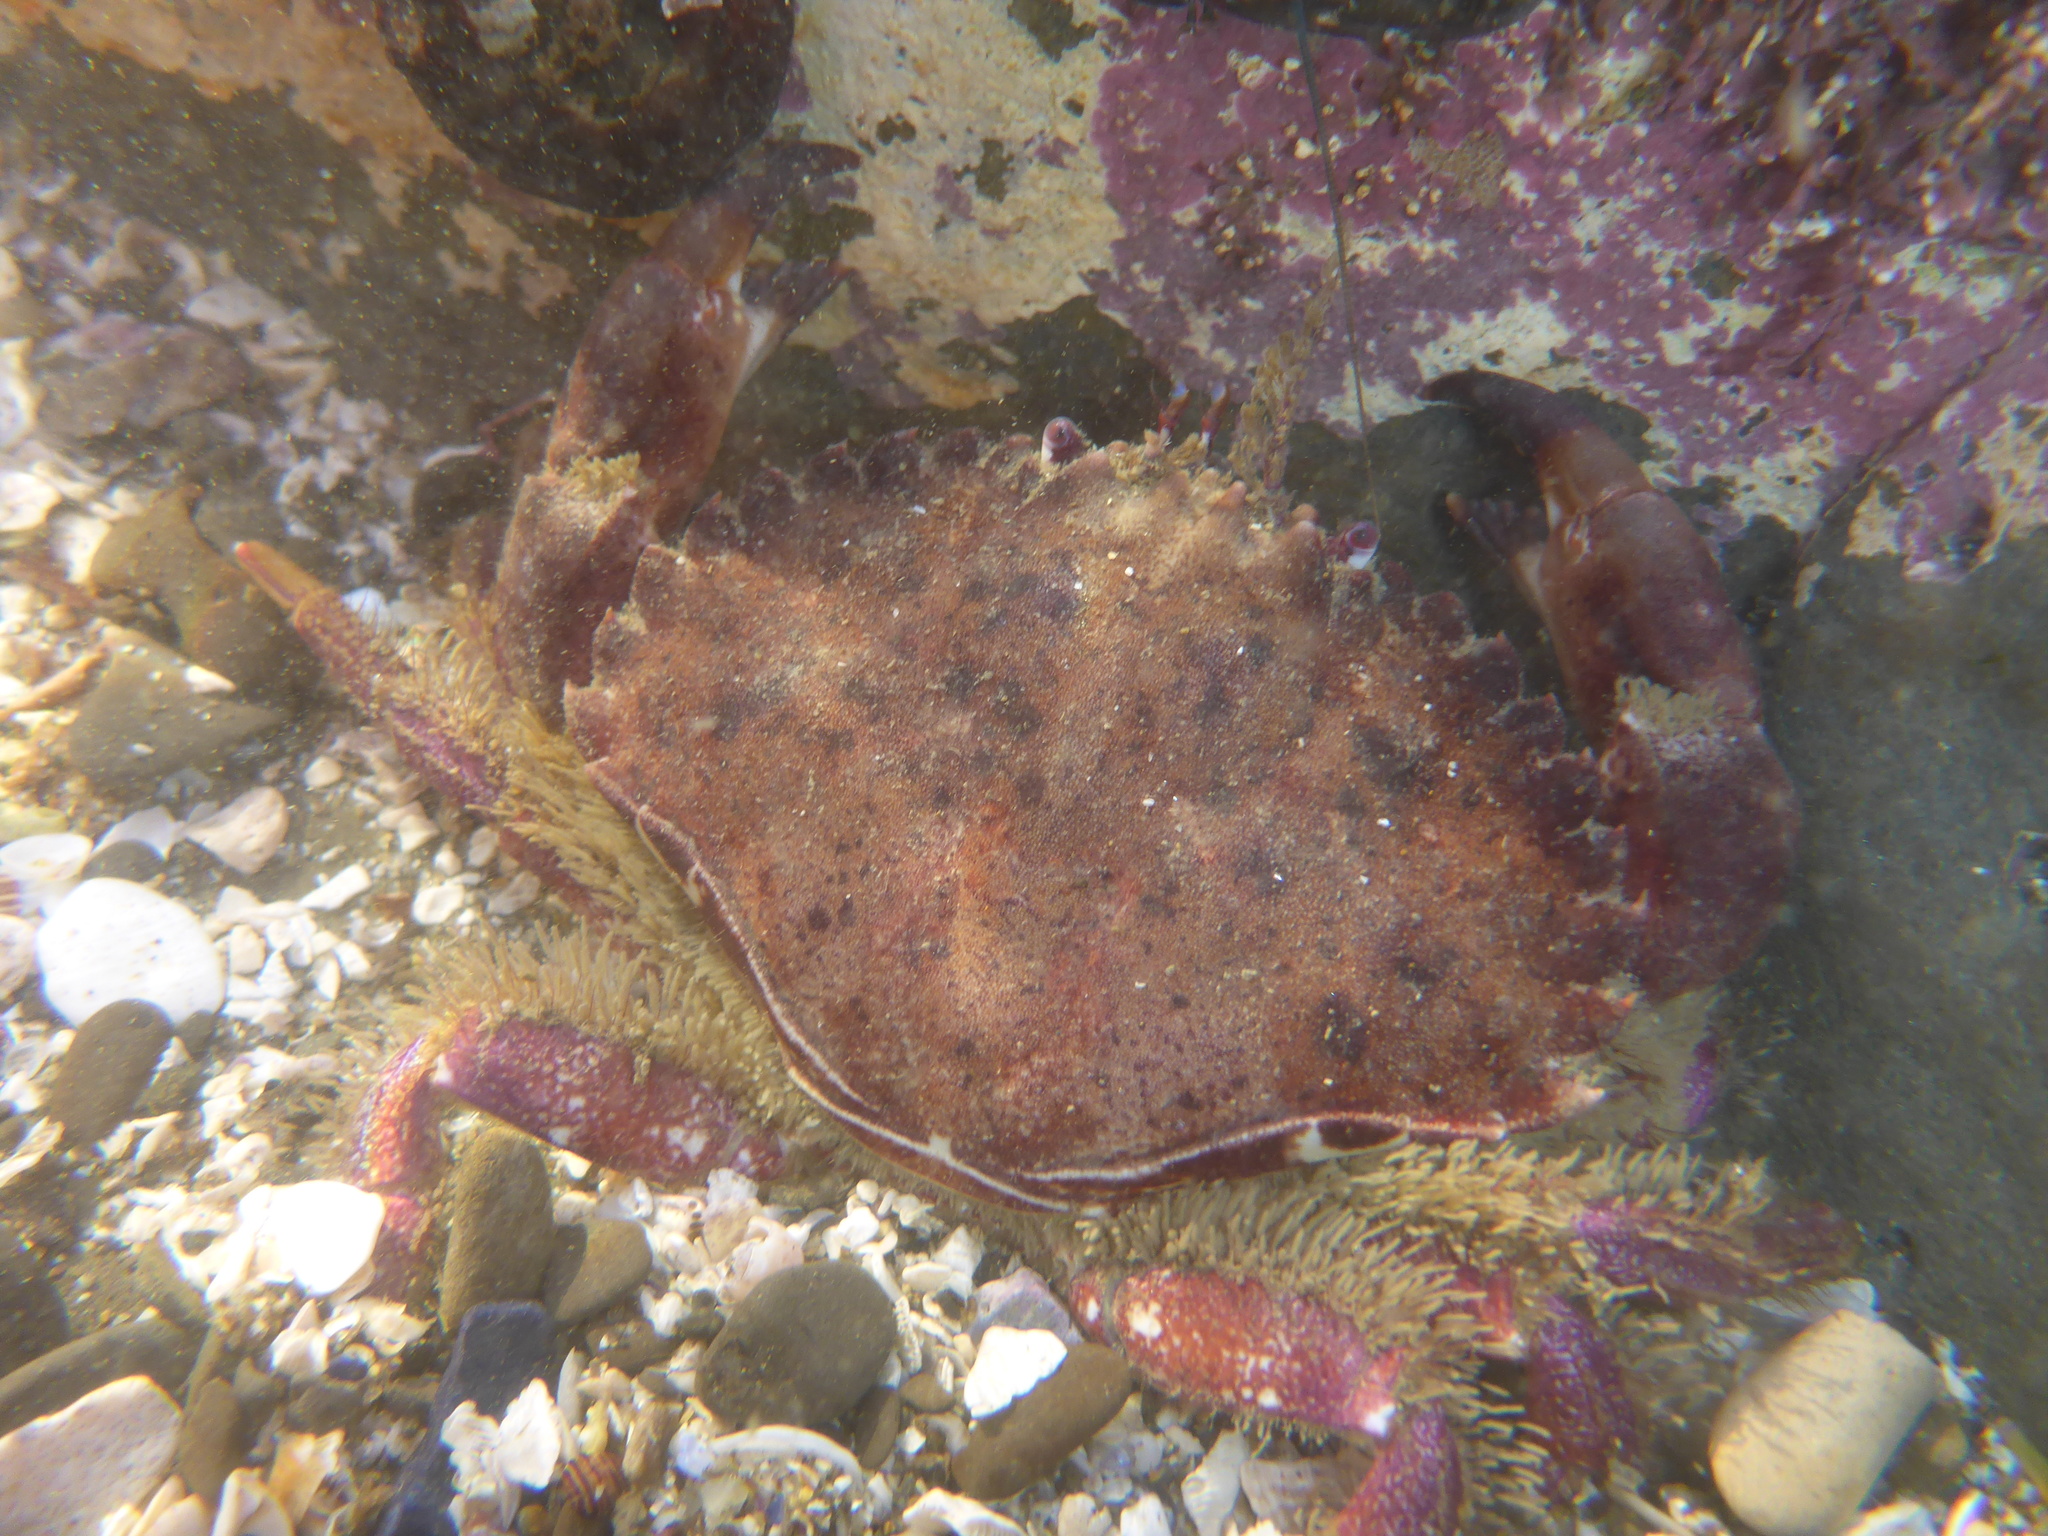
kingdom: Animalia
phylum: Arthropoda
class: Malacostraca
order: Decapoda
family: Cancridae
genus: Romaleon
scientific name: Romaleon antennarium
